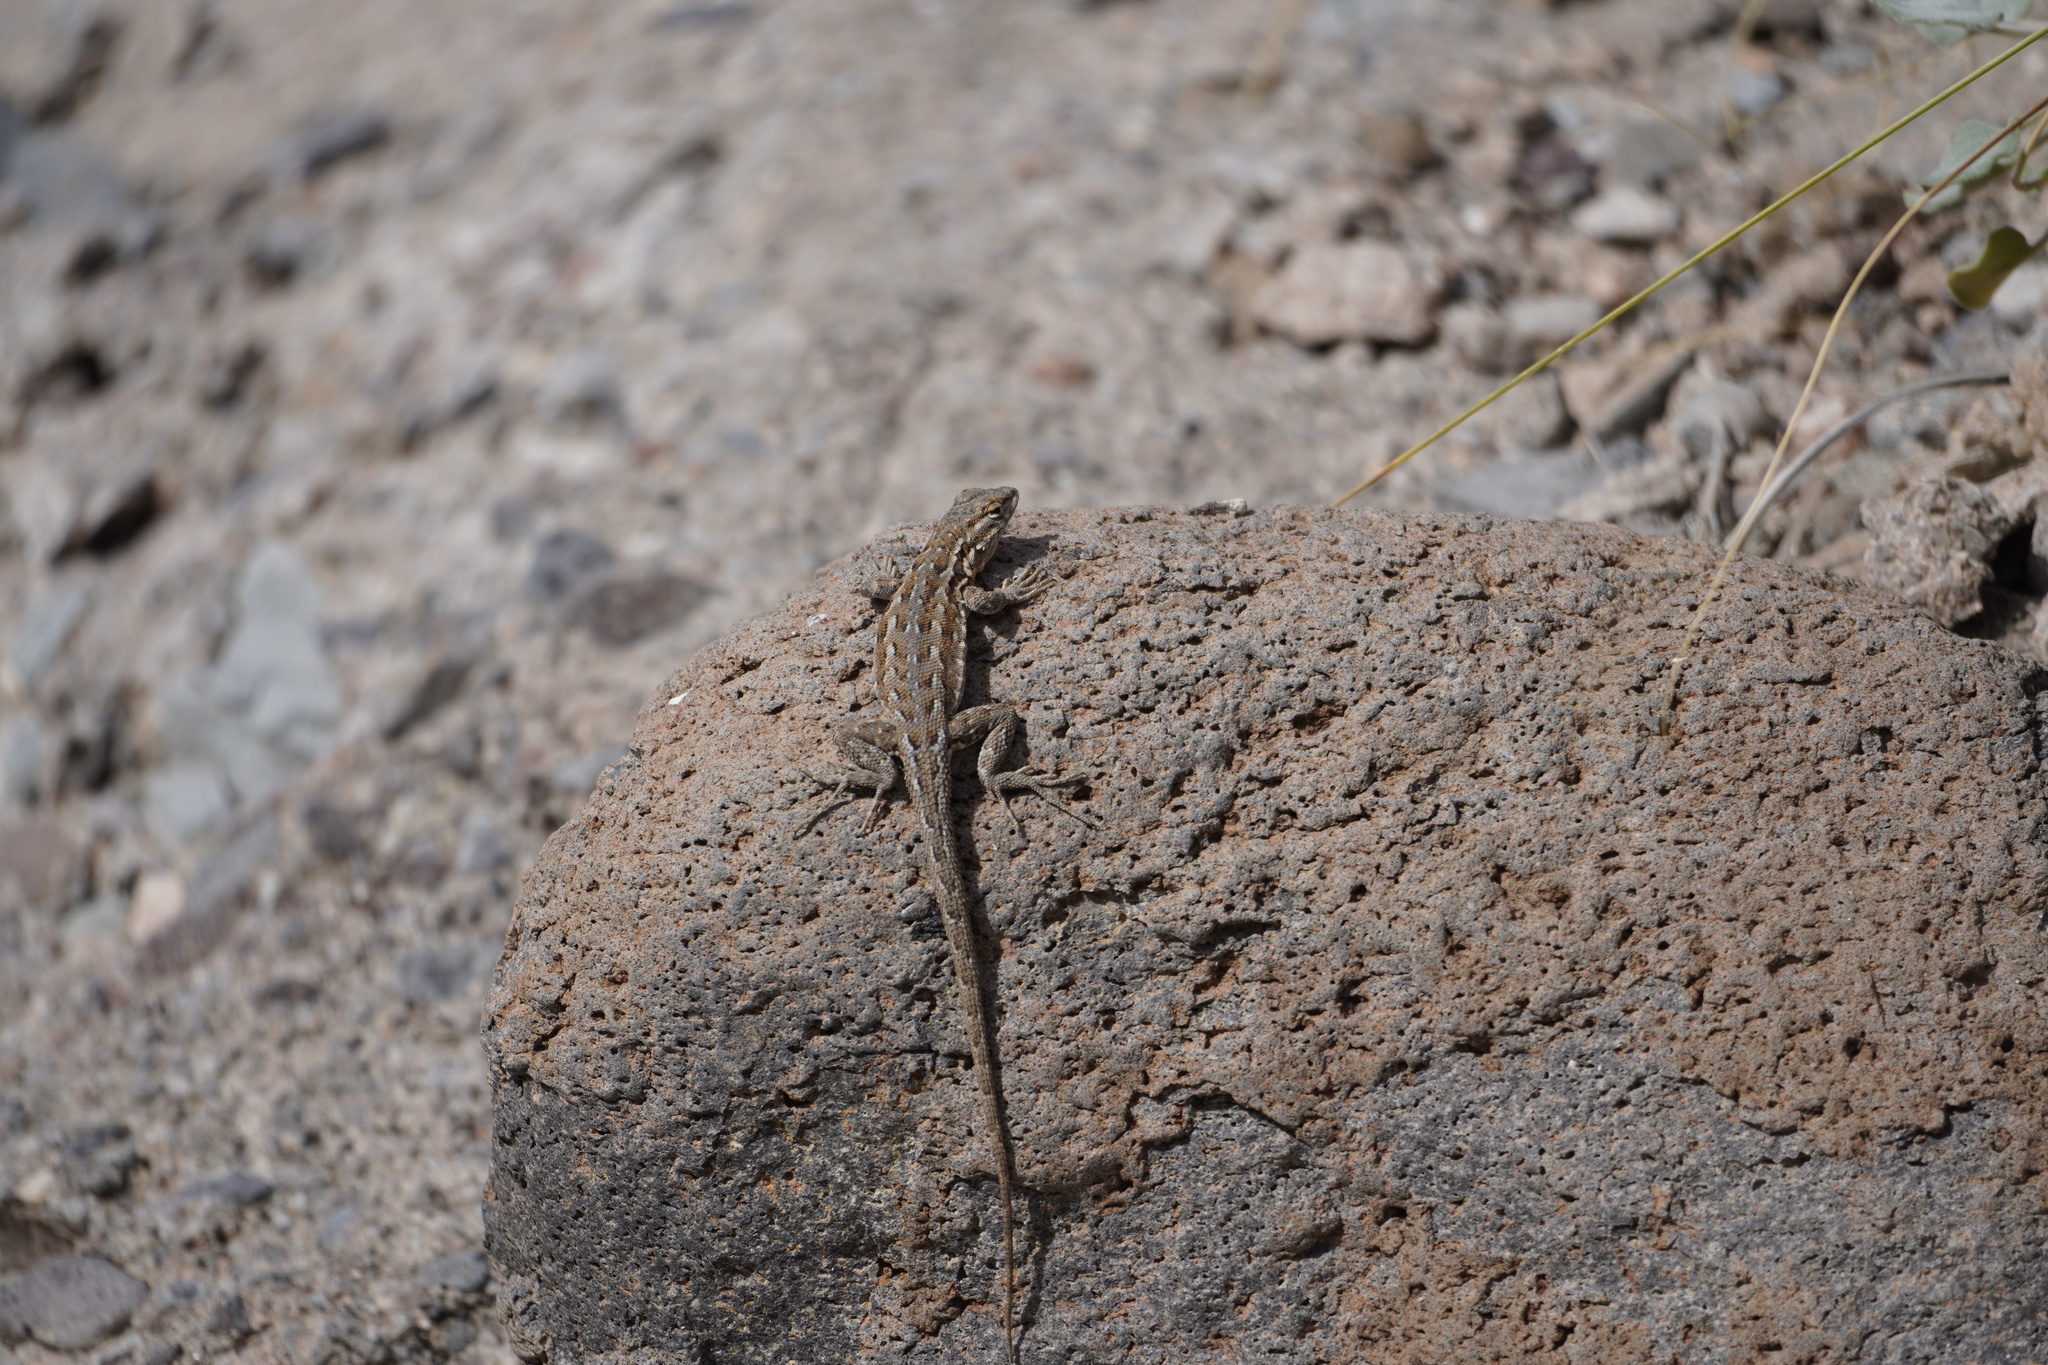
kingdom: Animalia
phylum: Chordata
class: Squamata
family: Phrynosomatidae
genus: Uta
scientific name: Uta stansburiana
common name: Side-blotched lizard
